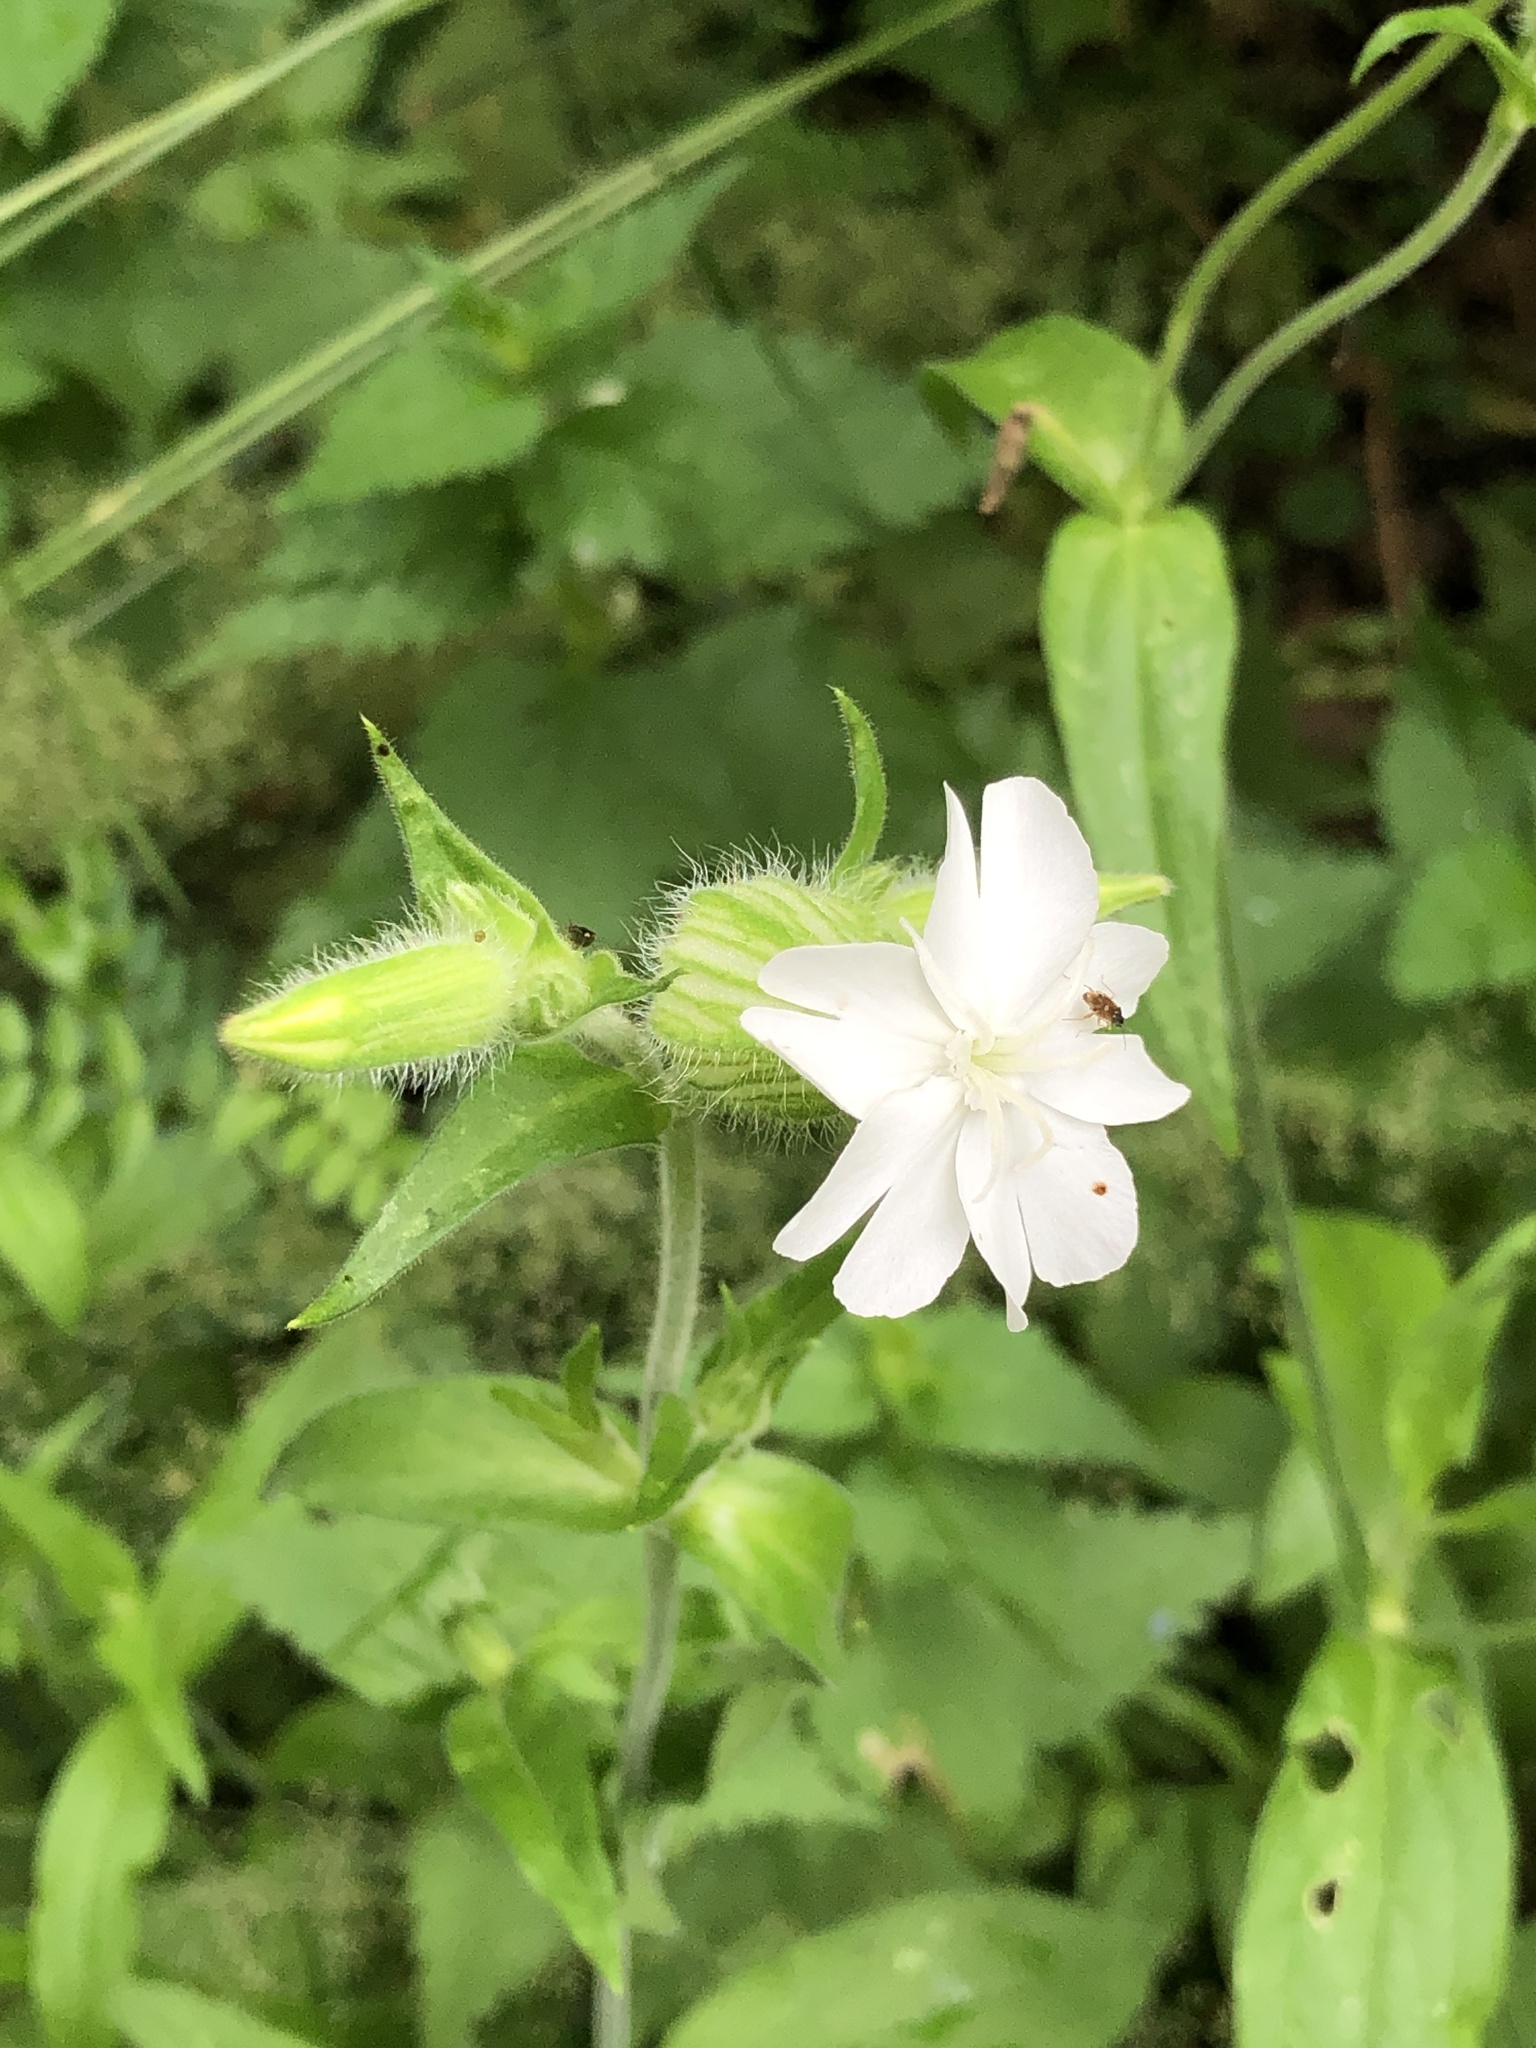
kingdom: Plantae
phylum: Tracheophyta
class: Magnoliopsida
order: Caryophyllales
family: Caryophyllaceae
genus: Silene
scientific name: Silene latifolia
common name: White campion
